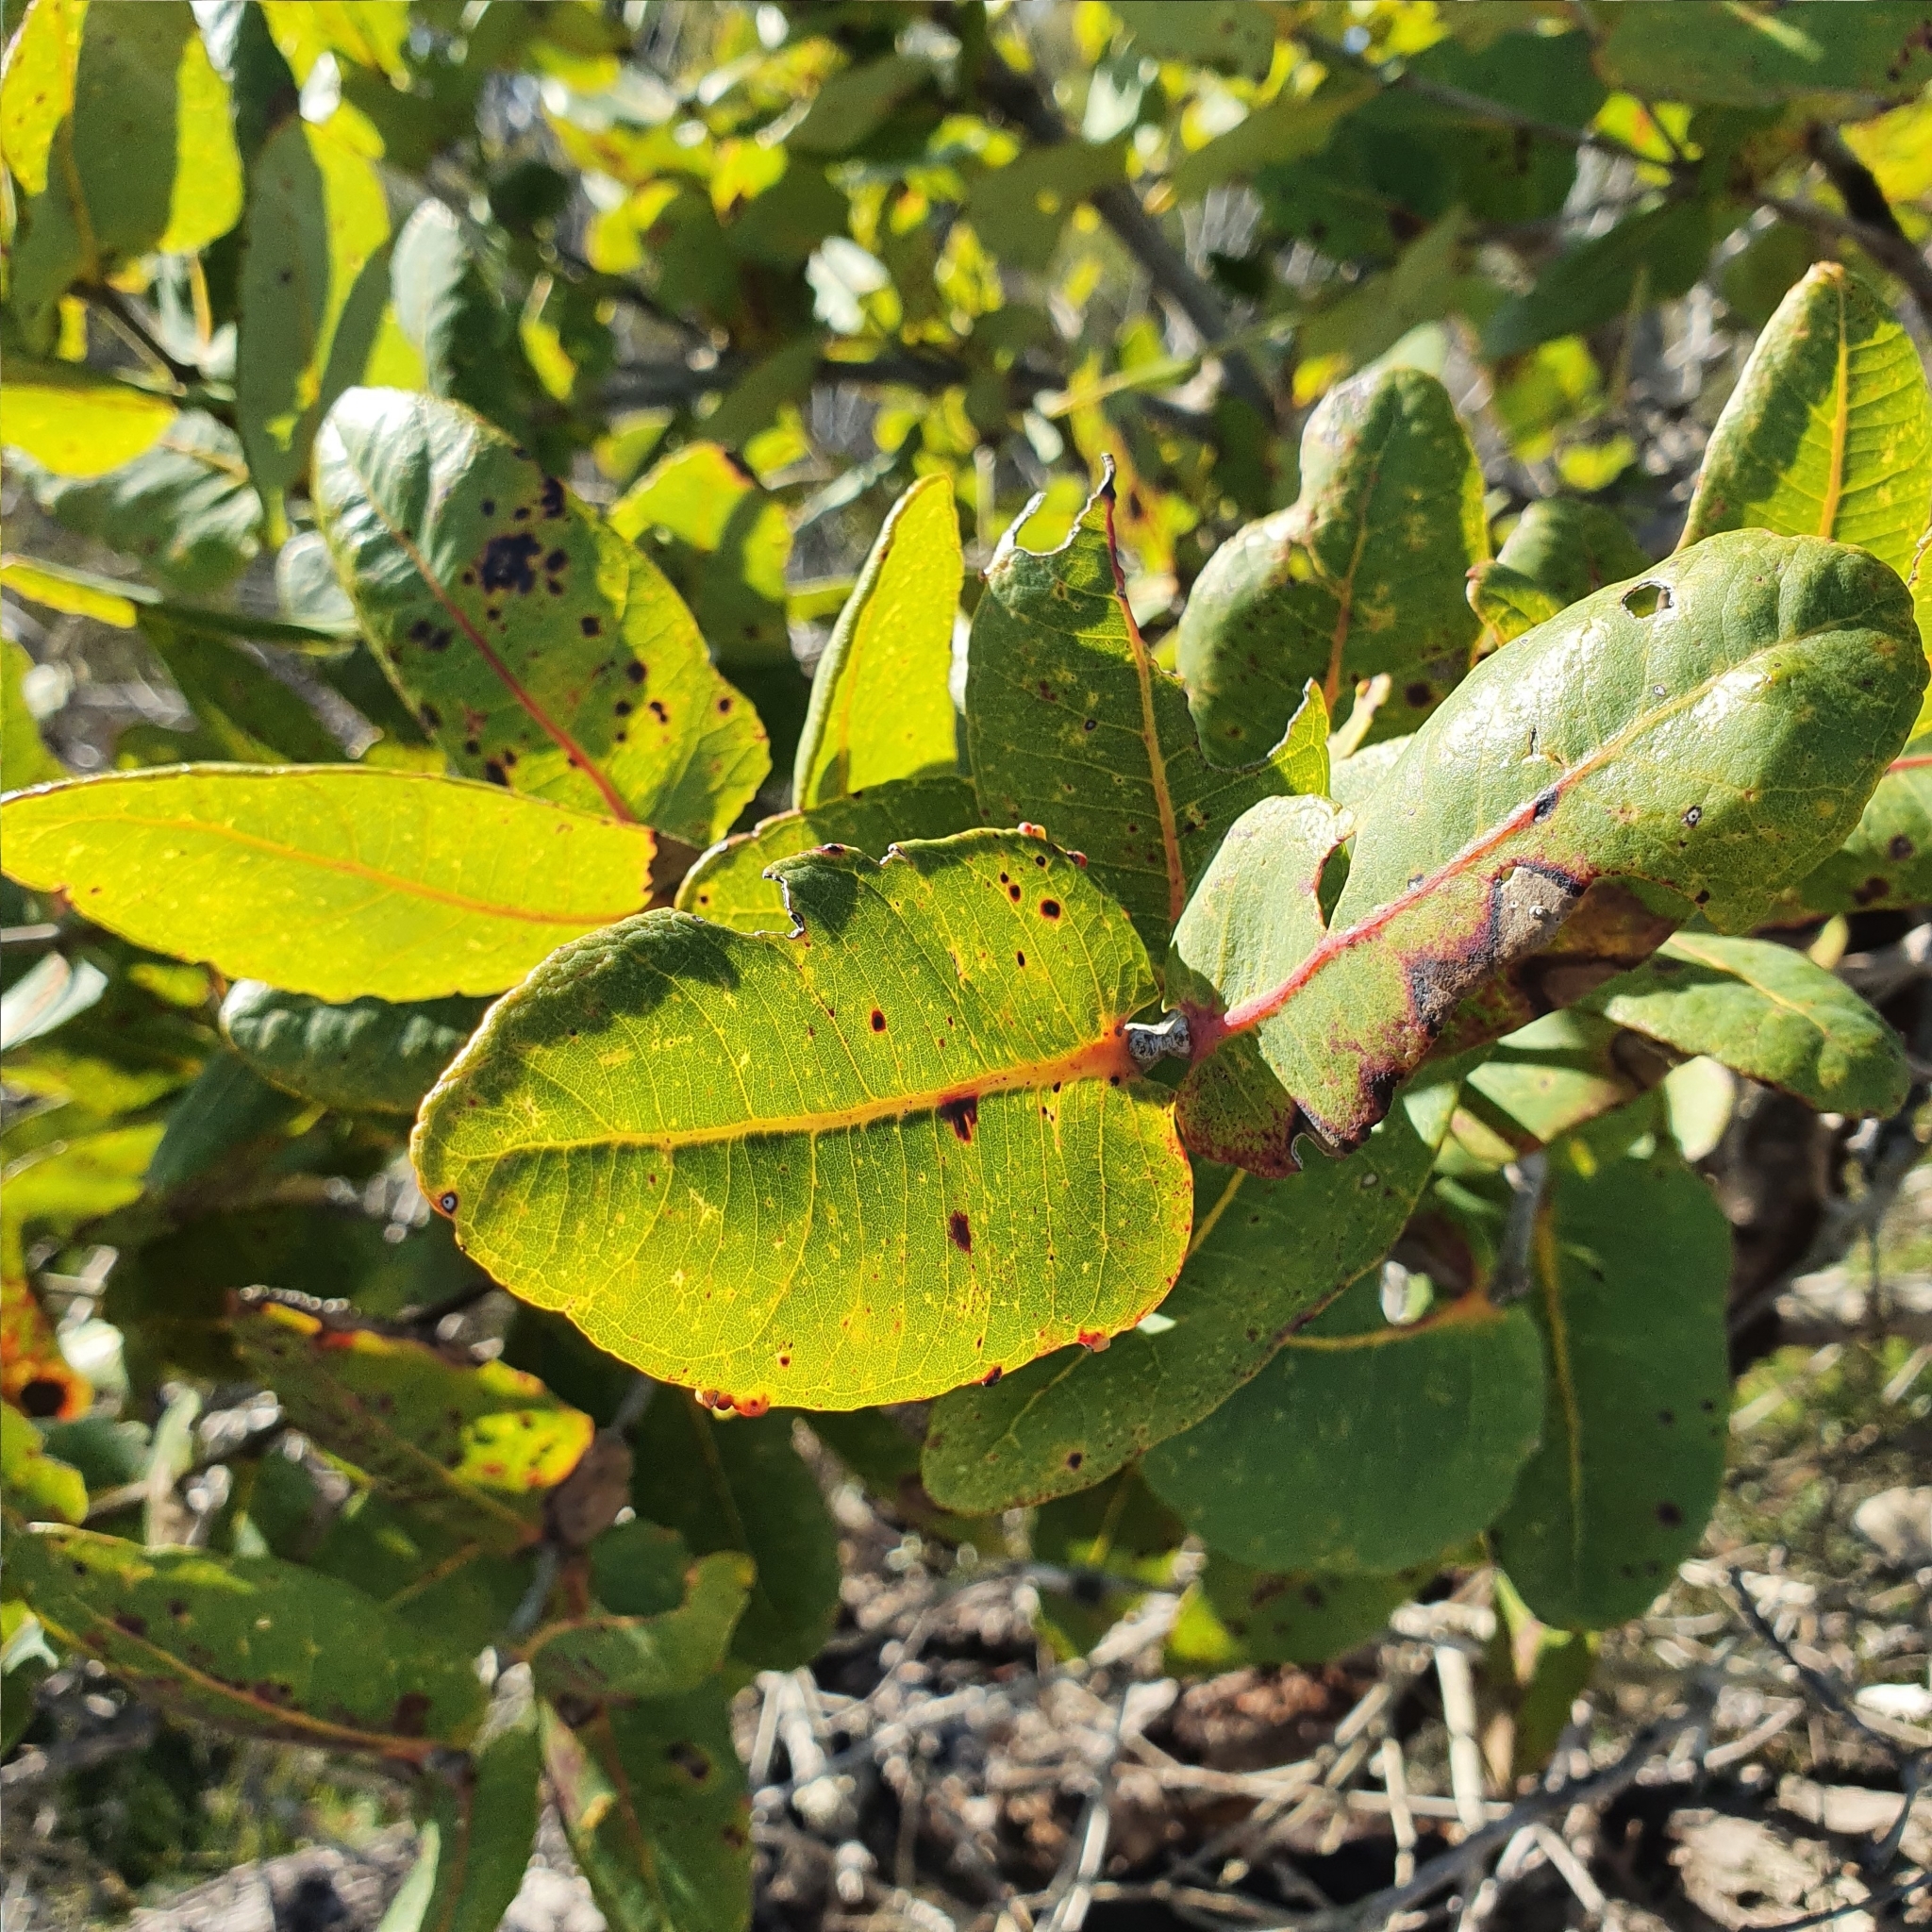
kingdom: Plantae
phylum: Tracheophyta
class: Magnoliopsida
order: Myrtales
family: Myrtaceae
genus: Angophora
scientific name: Angophora hispida
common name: Dwarf-apple
